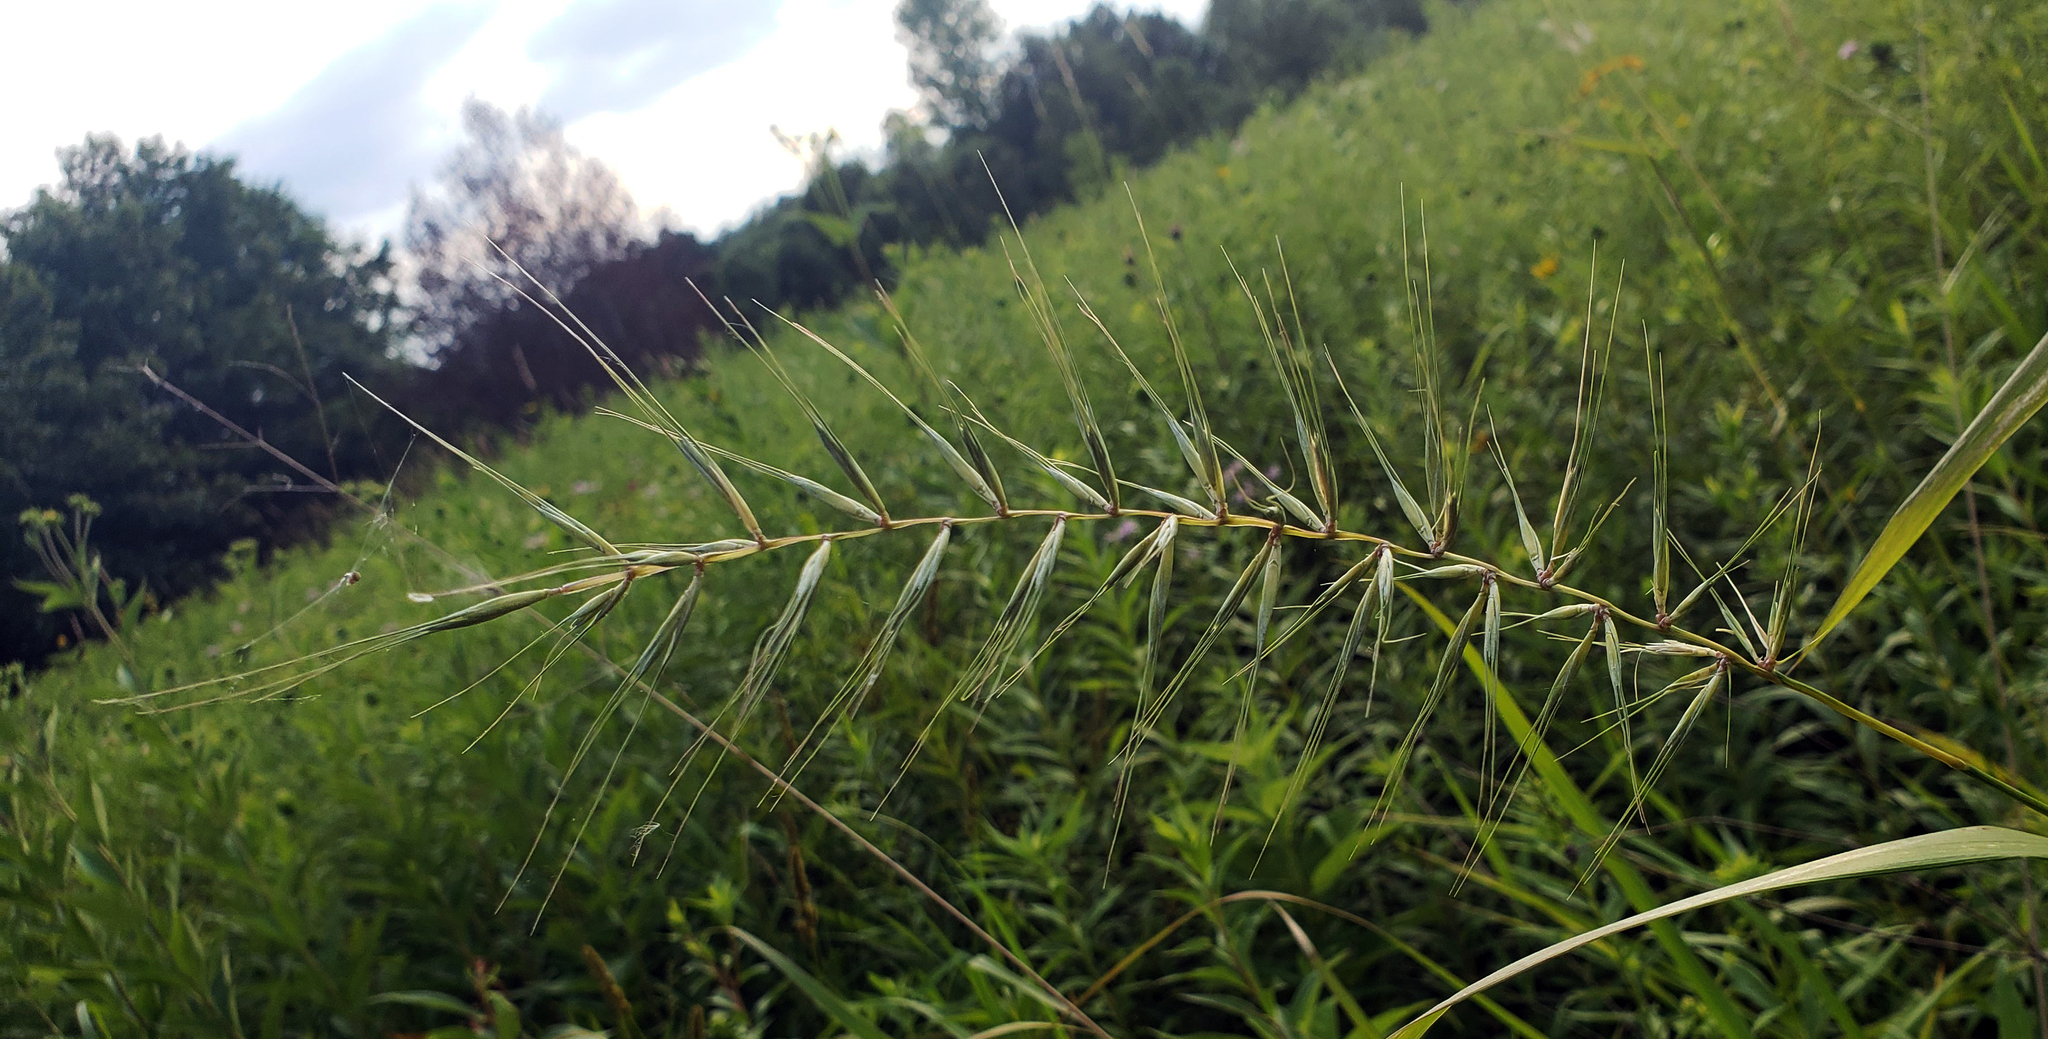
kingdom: Plantae
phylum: Tracheophyta
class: Liliopsida
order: Poales
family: Poaceae
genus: Elymus
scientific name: Elymus hystrix
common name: Bottlebrush grass
